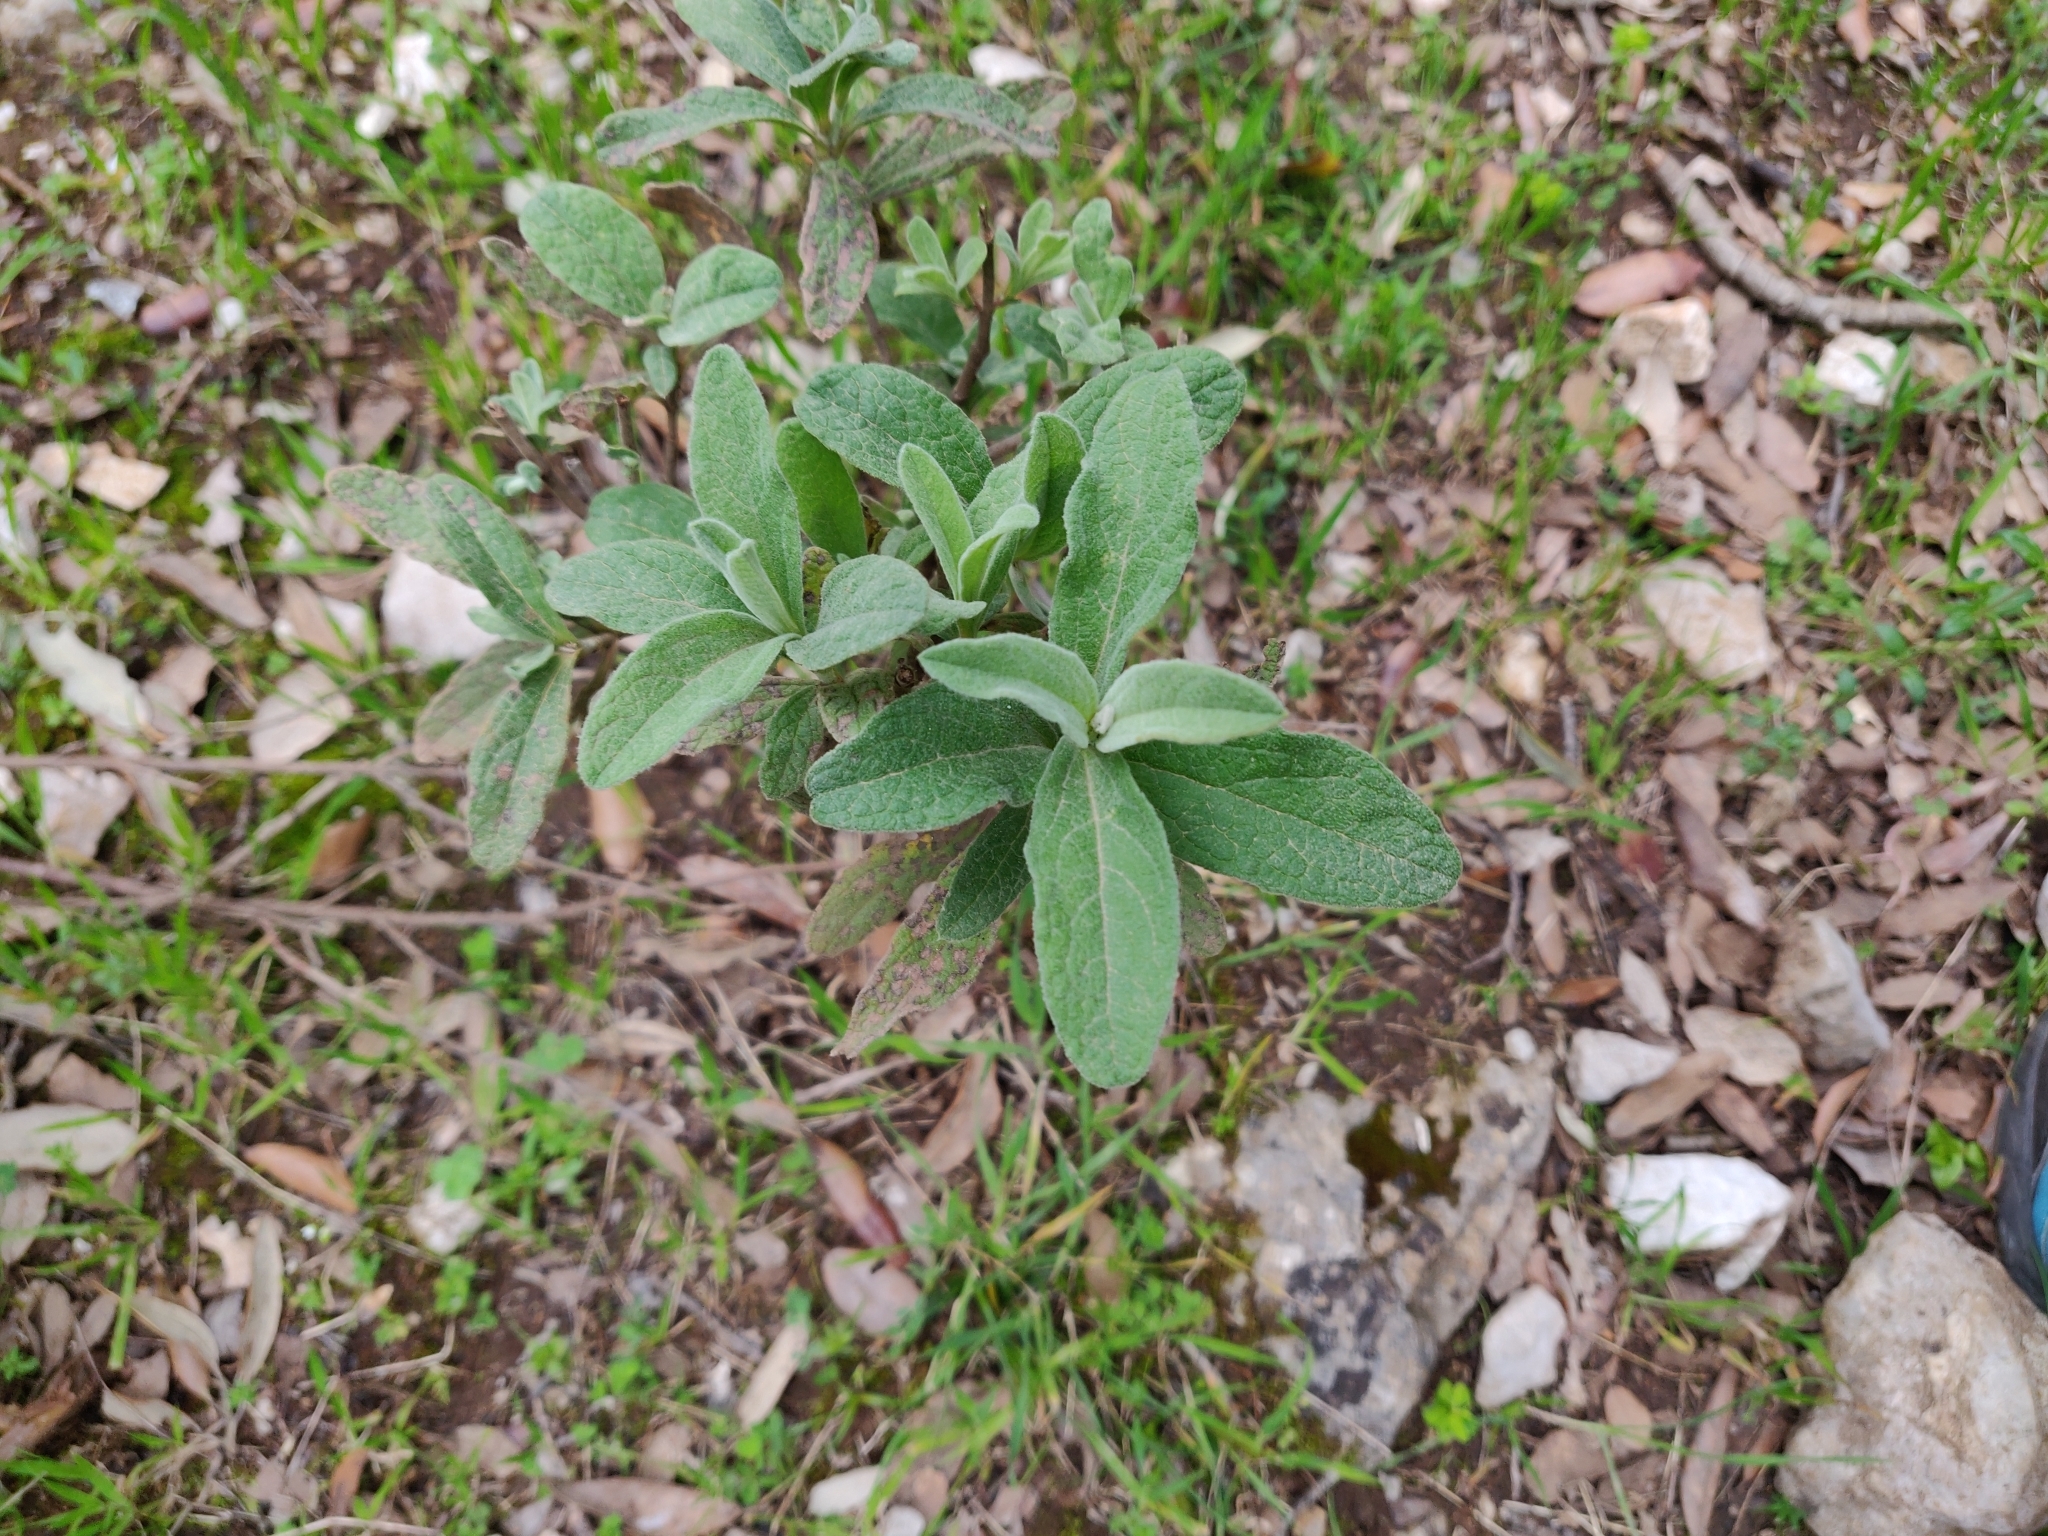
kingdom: Plantae
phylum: Tracheophyta
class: Magnoliopsida
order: Malvales
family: Cistaceae
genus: Cistus
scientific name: Cistus albidus
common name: White-leaf rock-rose
